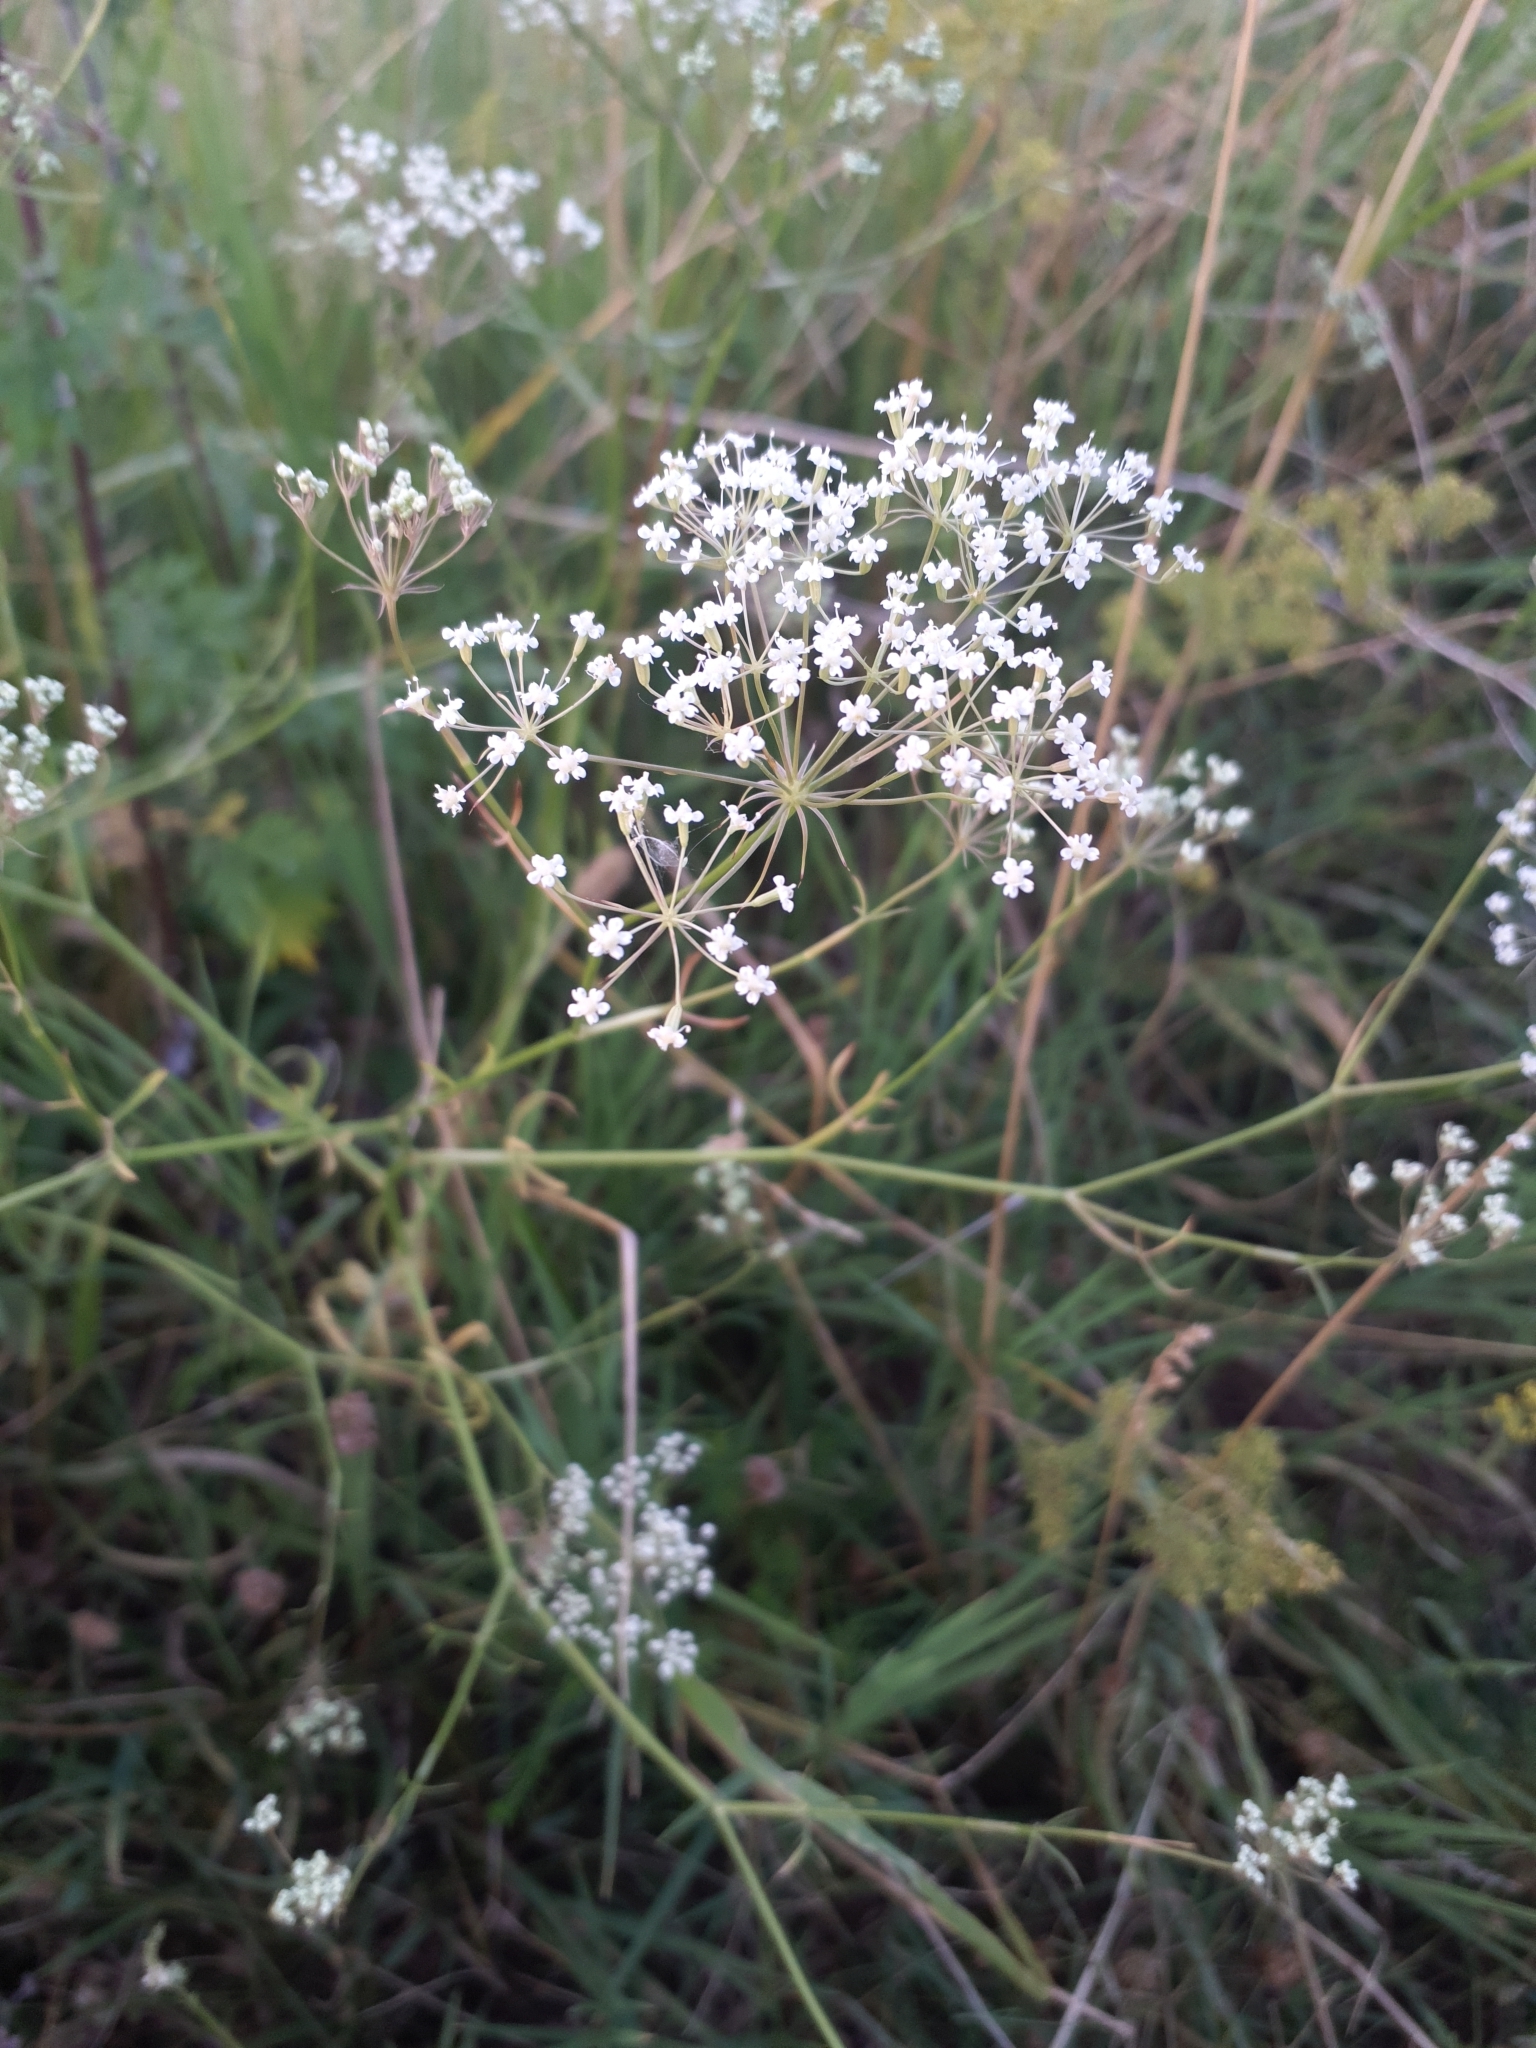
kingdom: Plantae
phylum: Tracheophyta
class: Magnoliopsida
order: Apiales
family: Apiaceae
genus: Falcaria
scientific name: Falcaria vulgaris
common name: Longleaf
